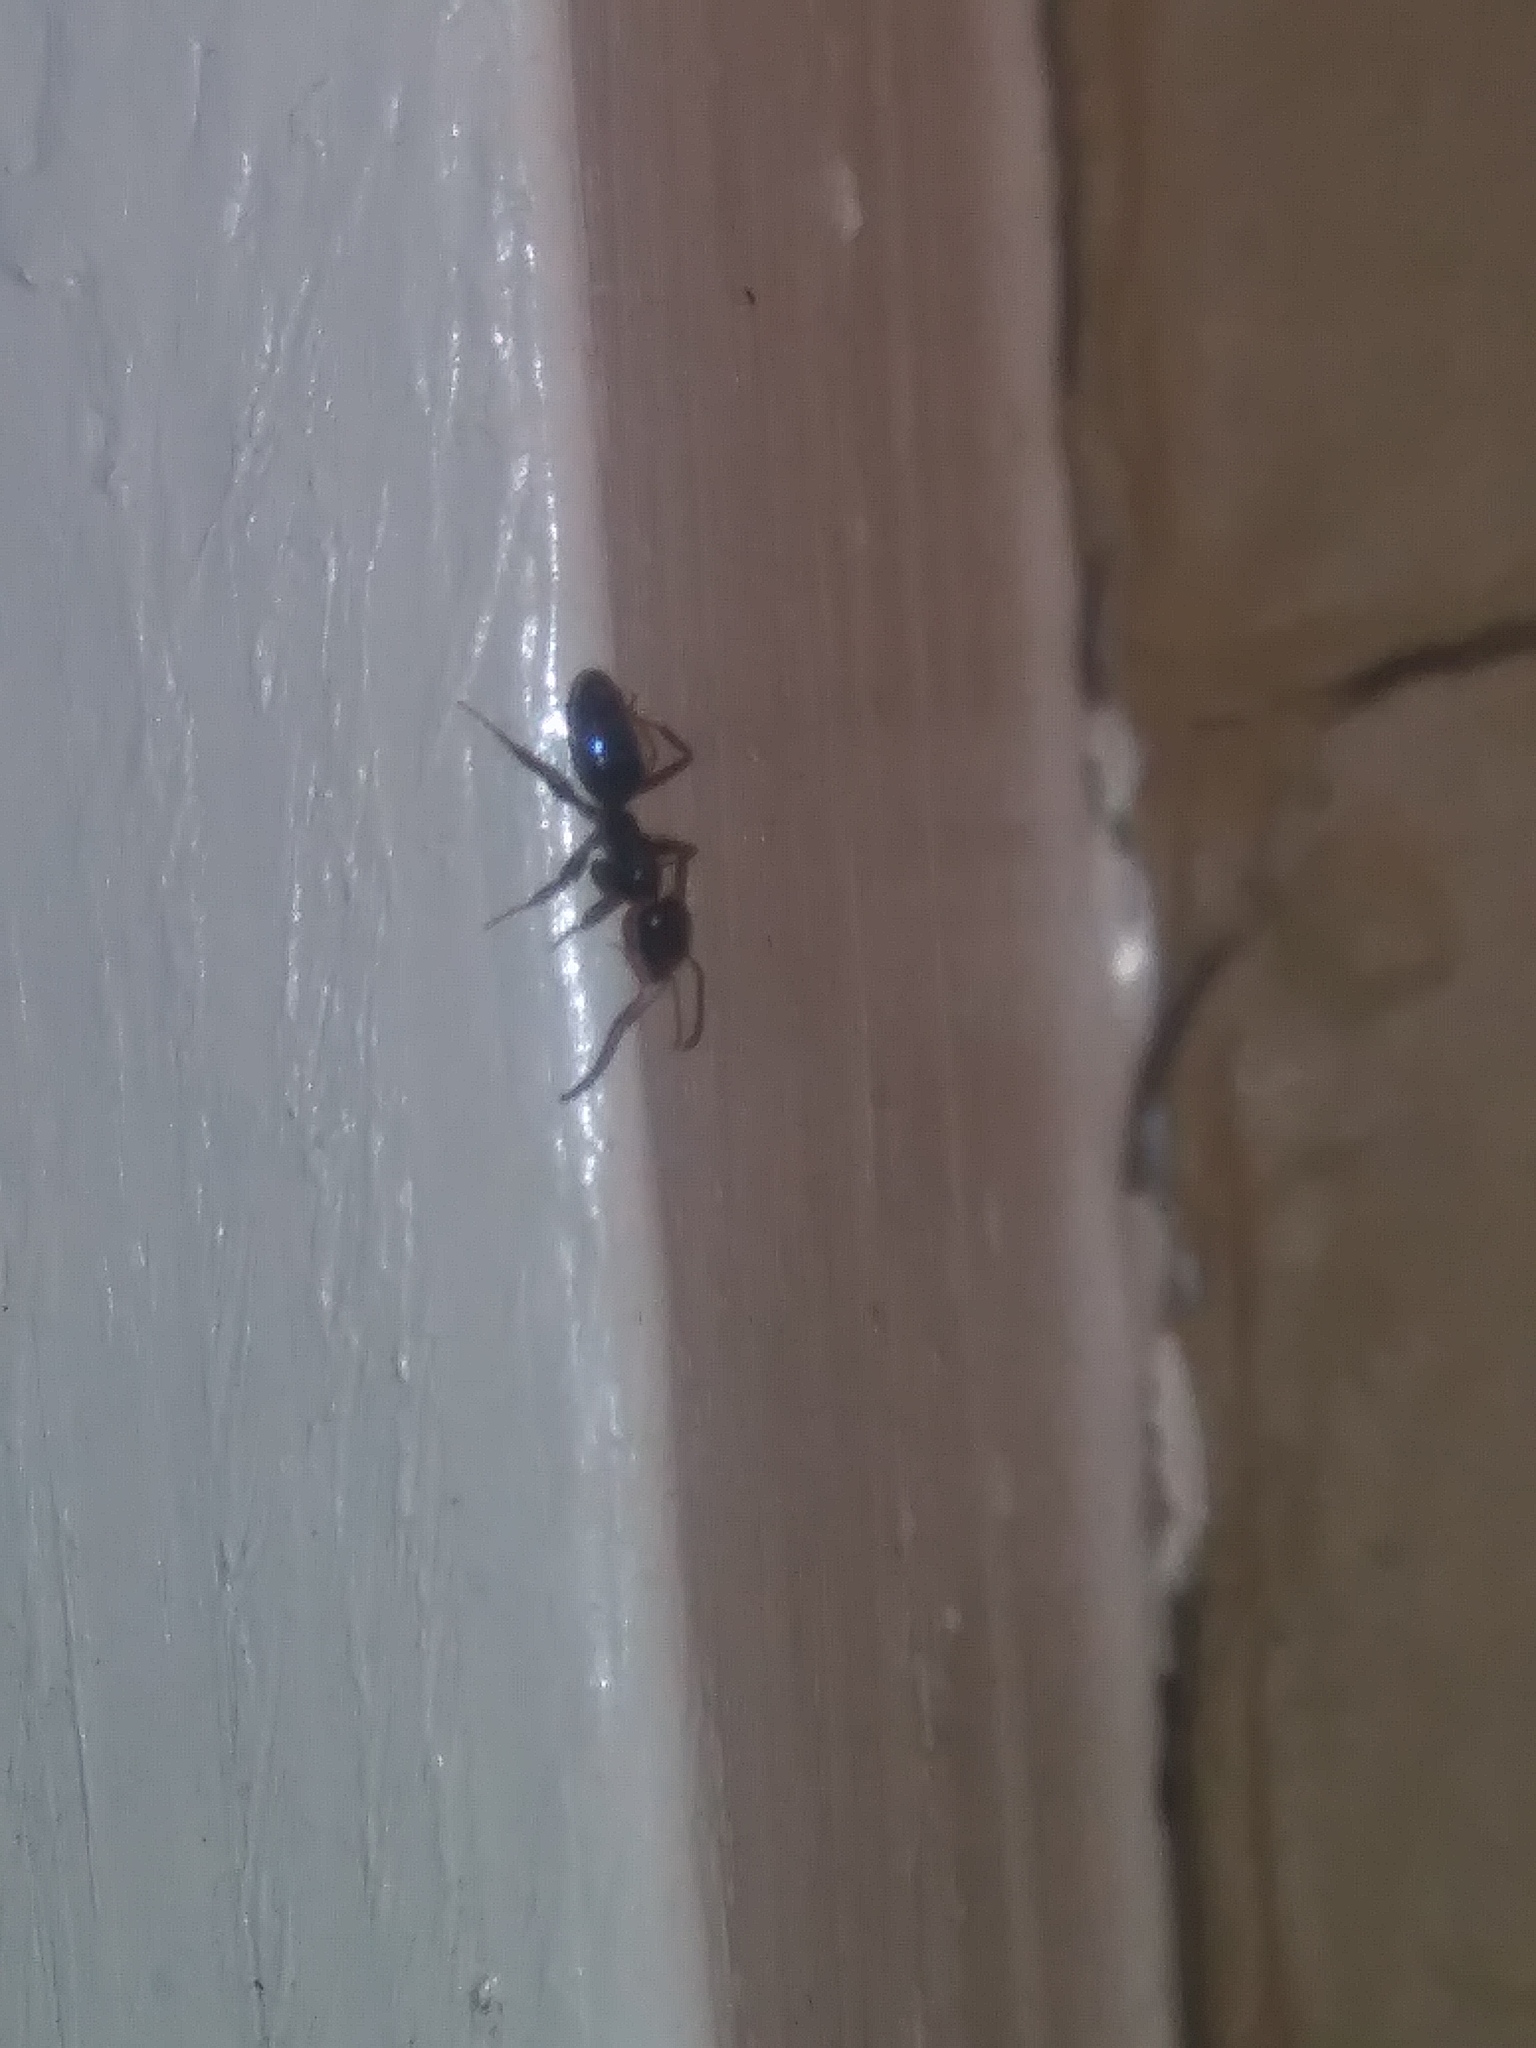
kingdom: Animalia
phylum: Arthropoda
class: Insecta
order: Hymenoptera
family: Formicidae
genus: Tapinoma
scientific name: Tapinoma sessile
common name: Odorous house ant
